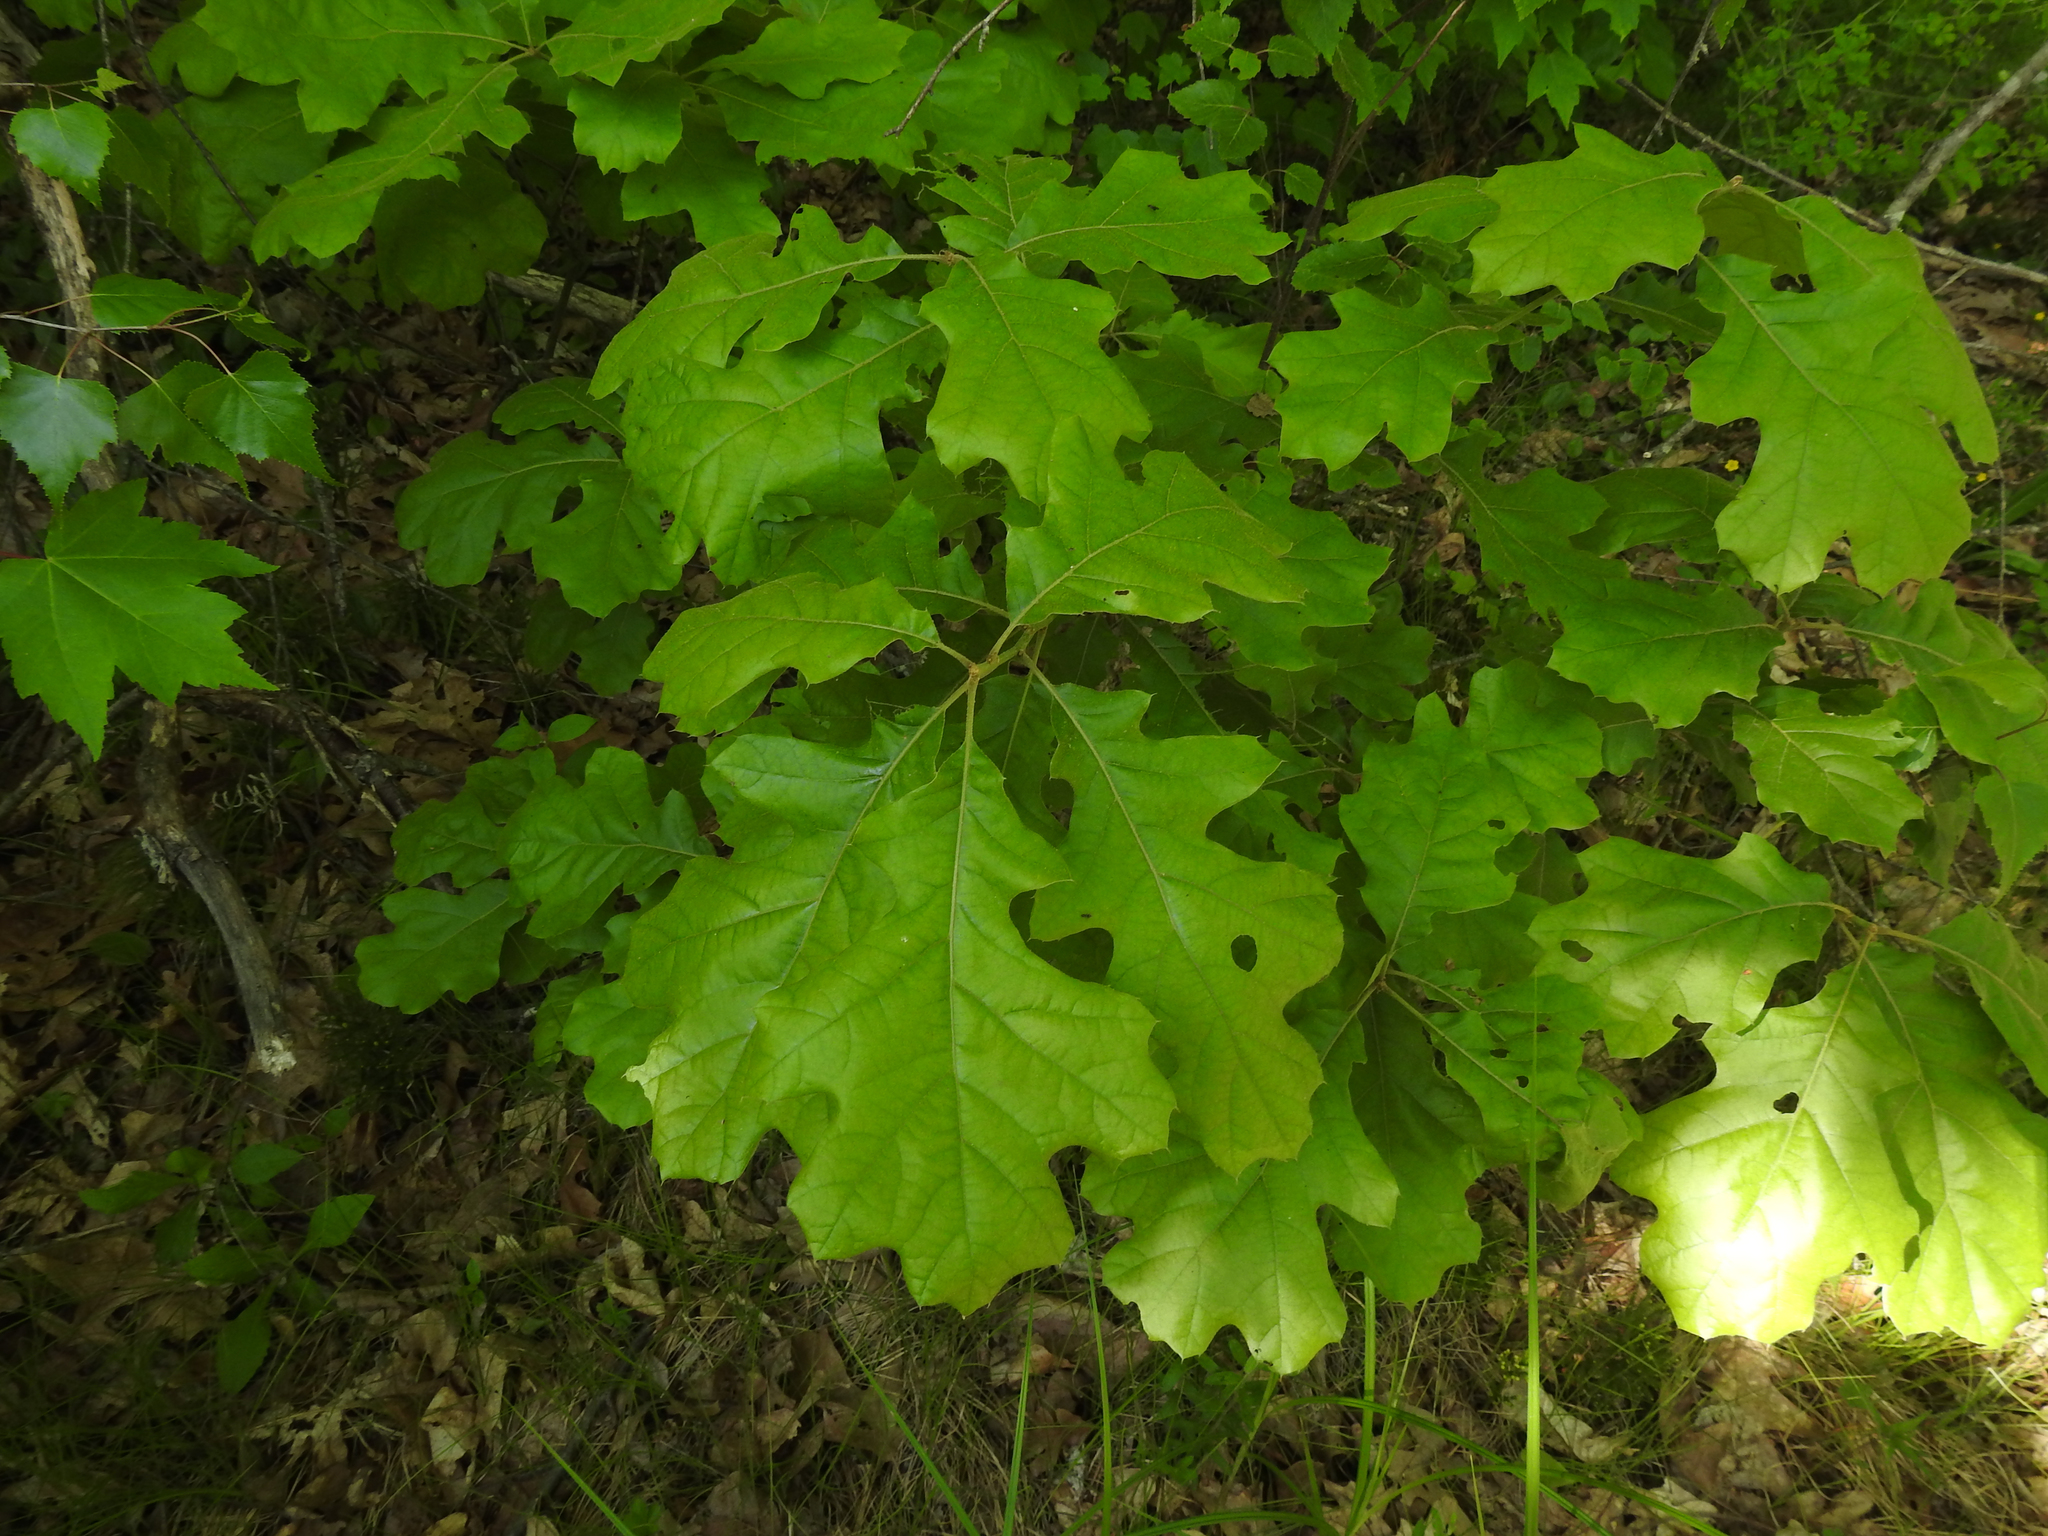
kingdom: Plantae
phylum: Tracheophyta
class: Magnoliopsida
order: Fagales
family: Fagaceae
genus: Quercus
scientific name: Quercus velutina
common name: Black oak
